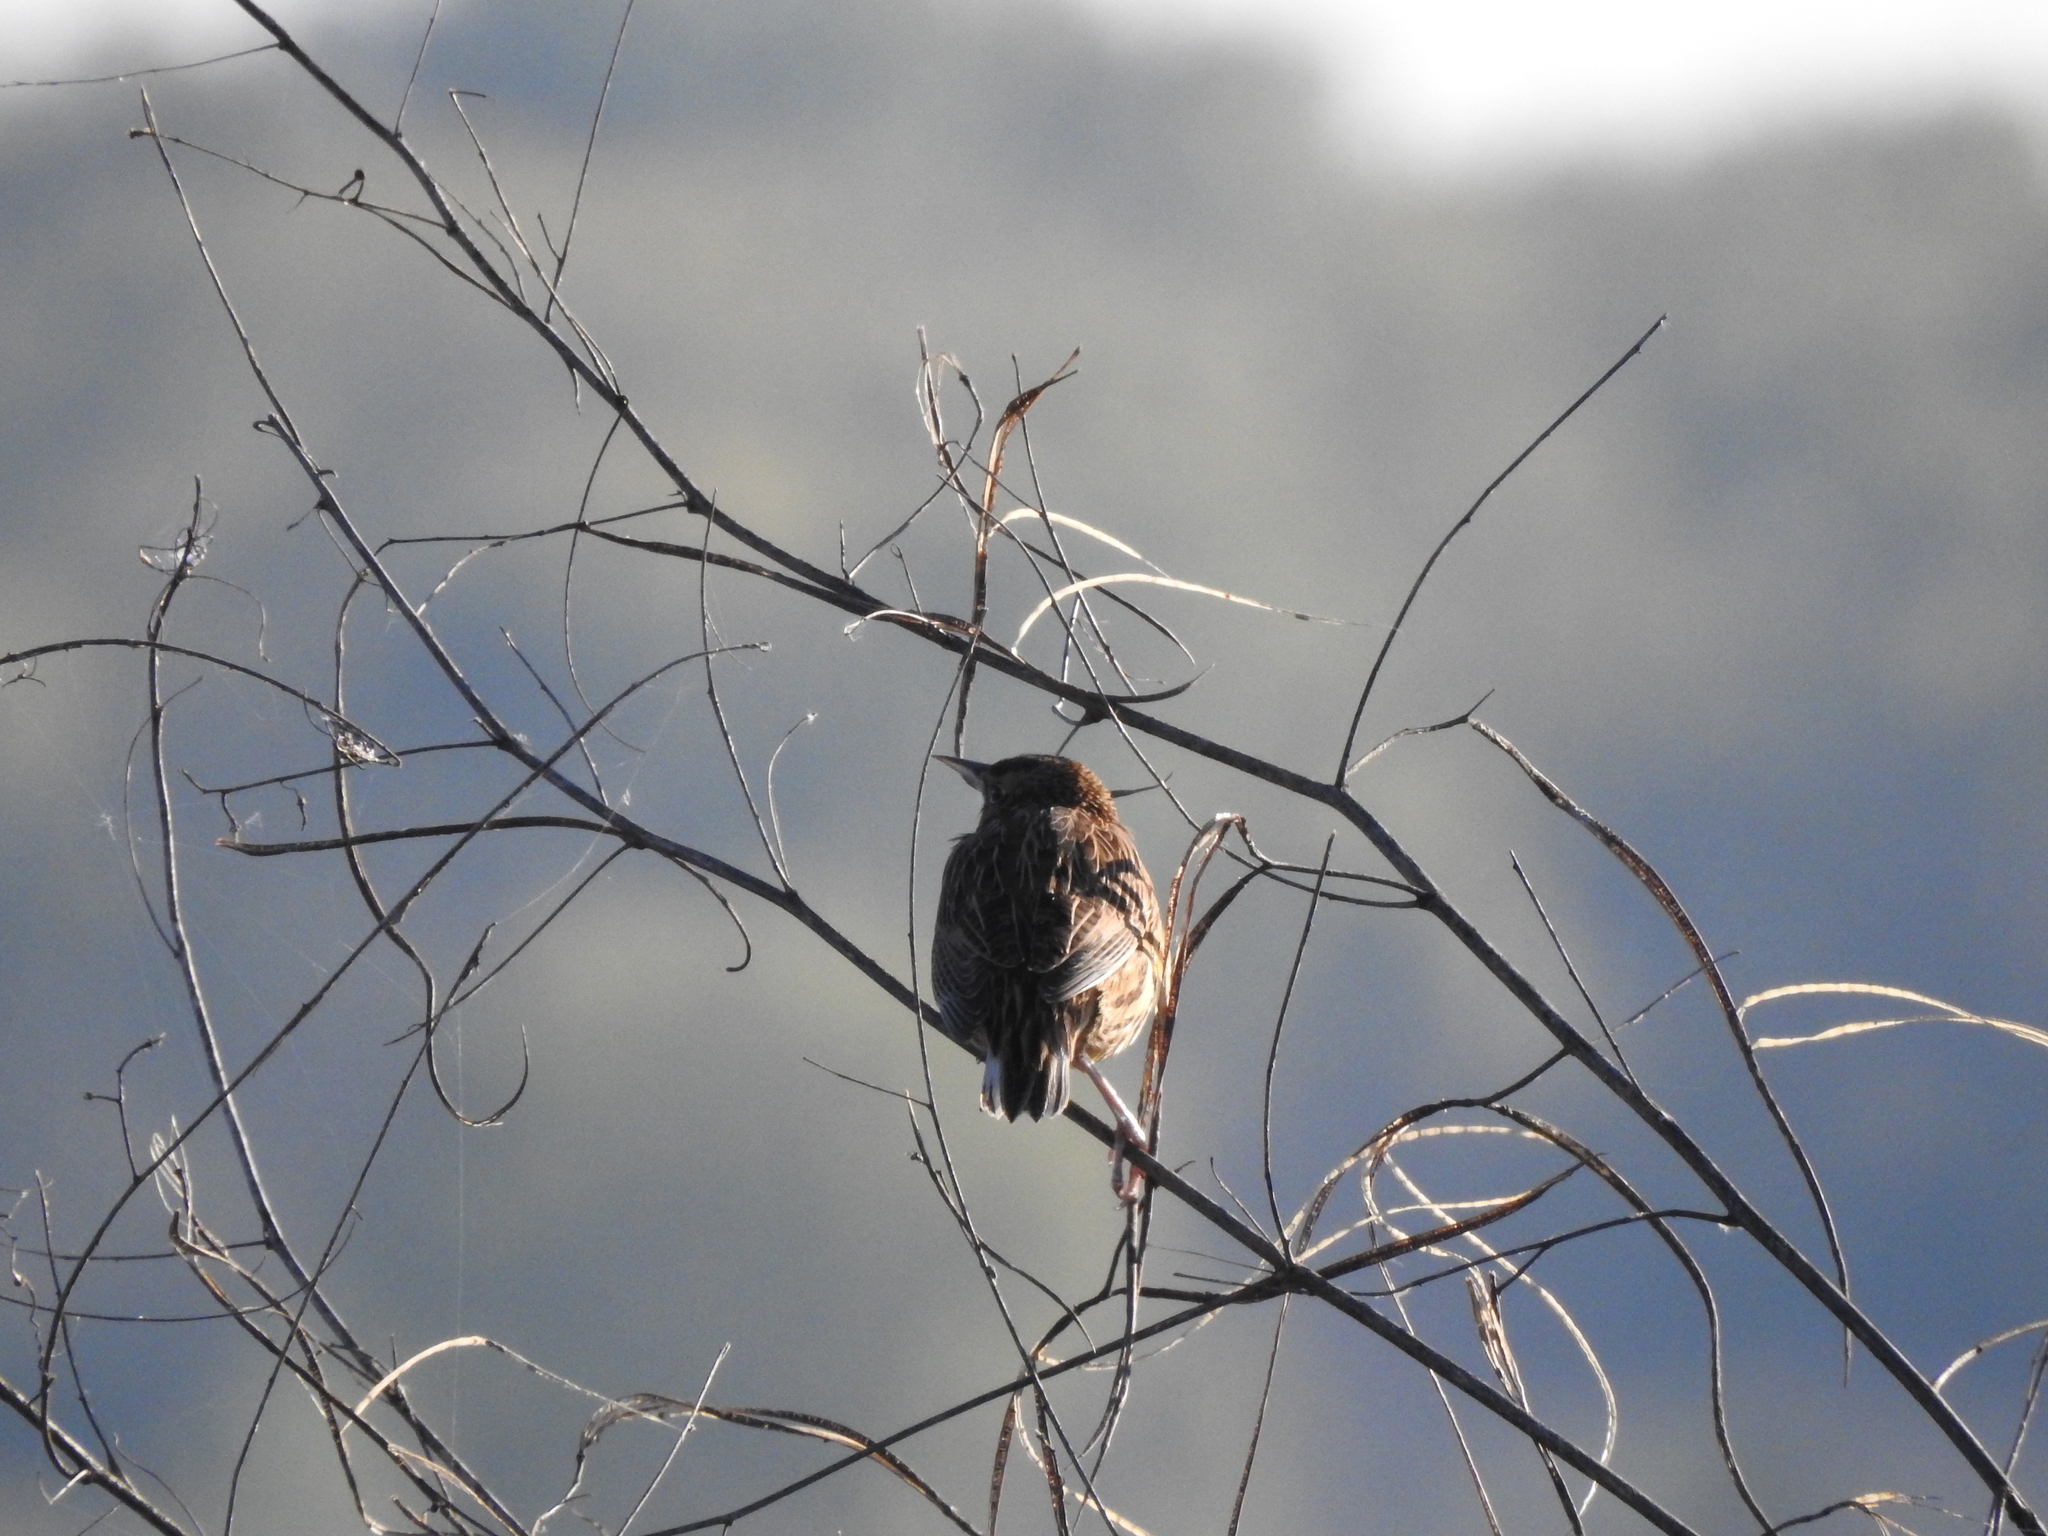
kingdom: Animalia
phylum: Chordata
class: Aves
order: Passeriformes
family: Icteridae
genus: Sturnella
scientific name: Sturnella magna
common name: Eastern meadowlark
